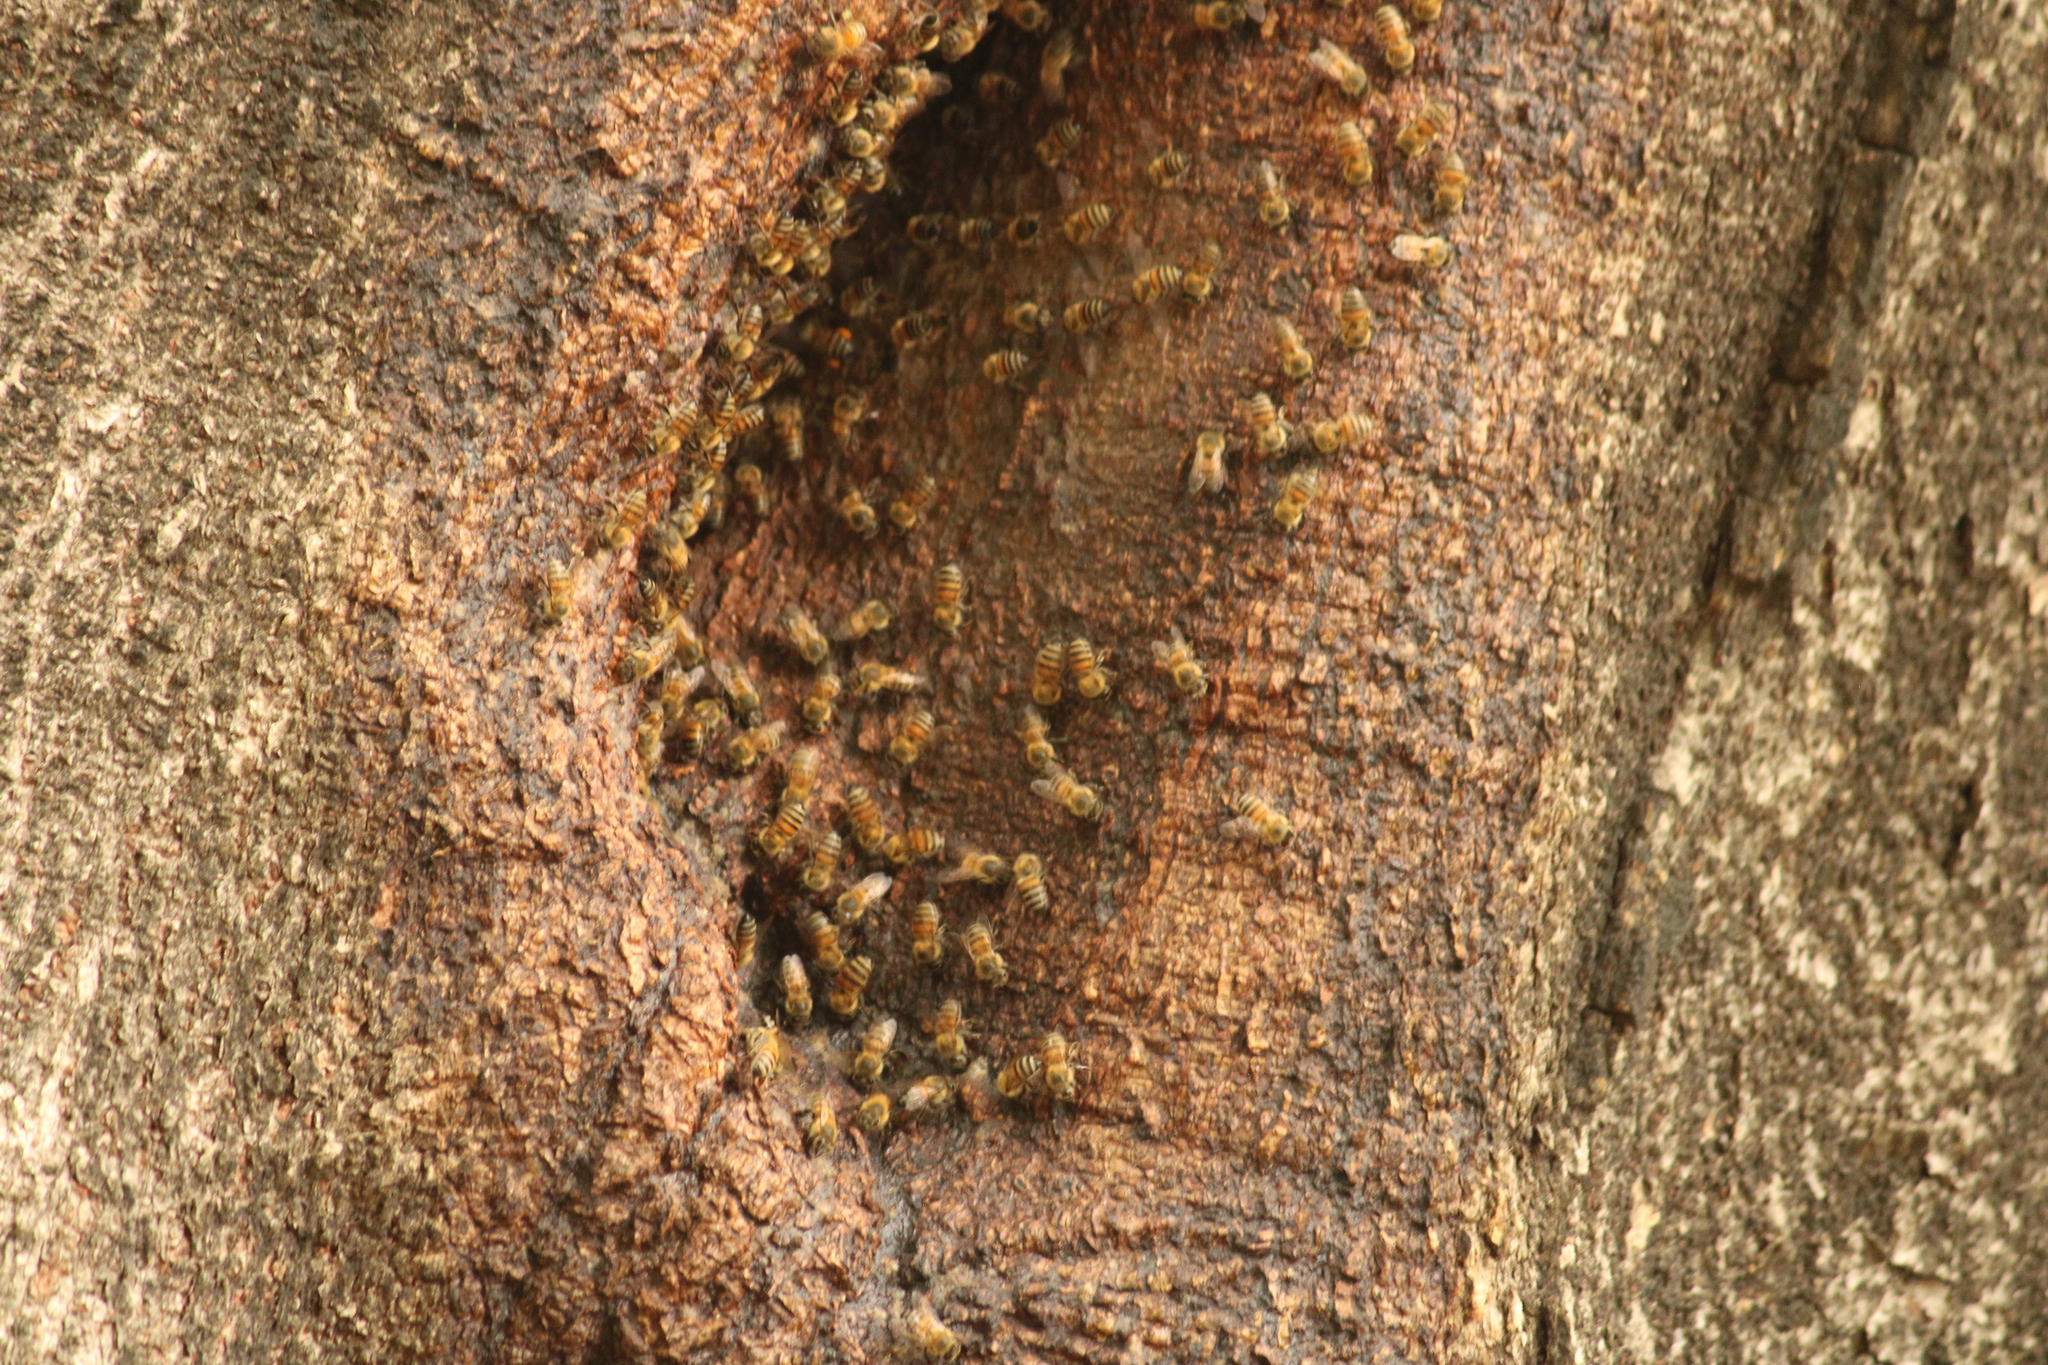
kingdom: Animalia
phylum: Arthropoda
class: Insecta
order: Hymenoptera
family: Apidae
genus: Apis
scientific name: Apis mellifera
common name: Honey bee
